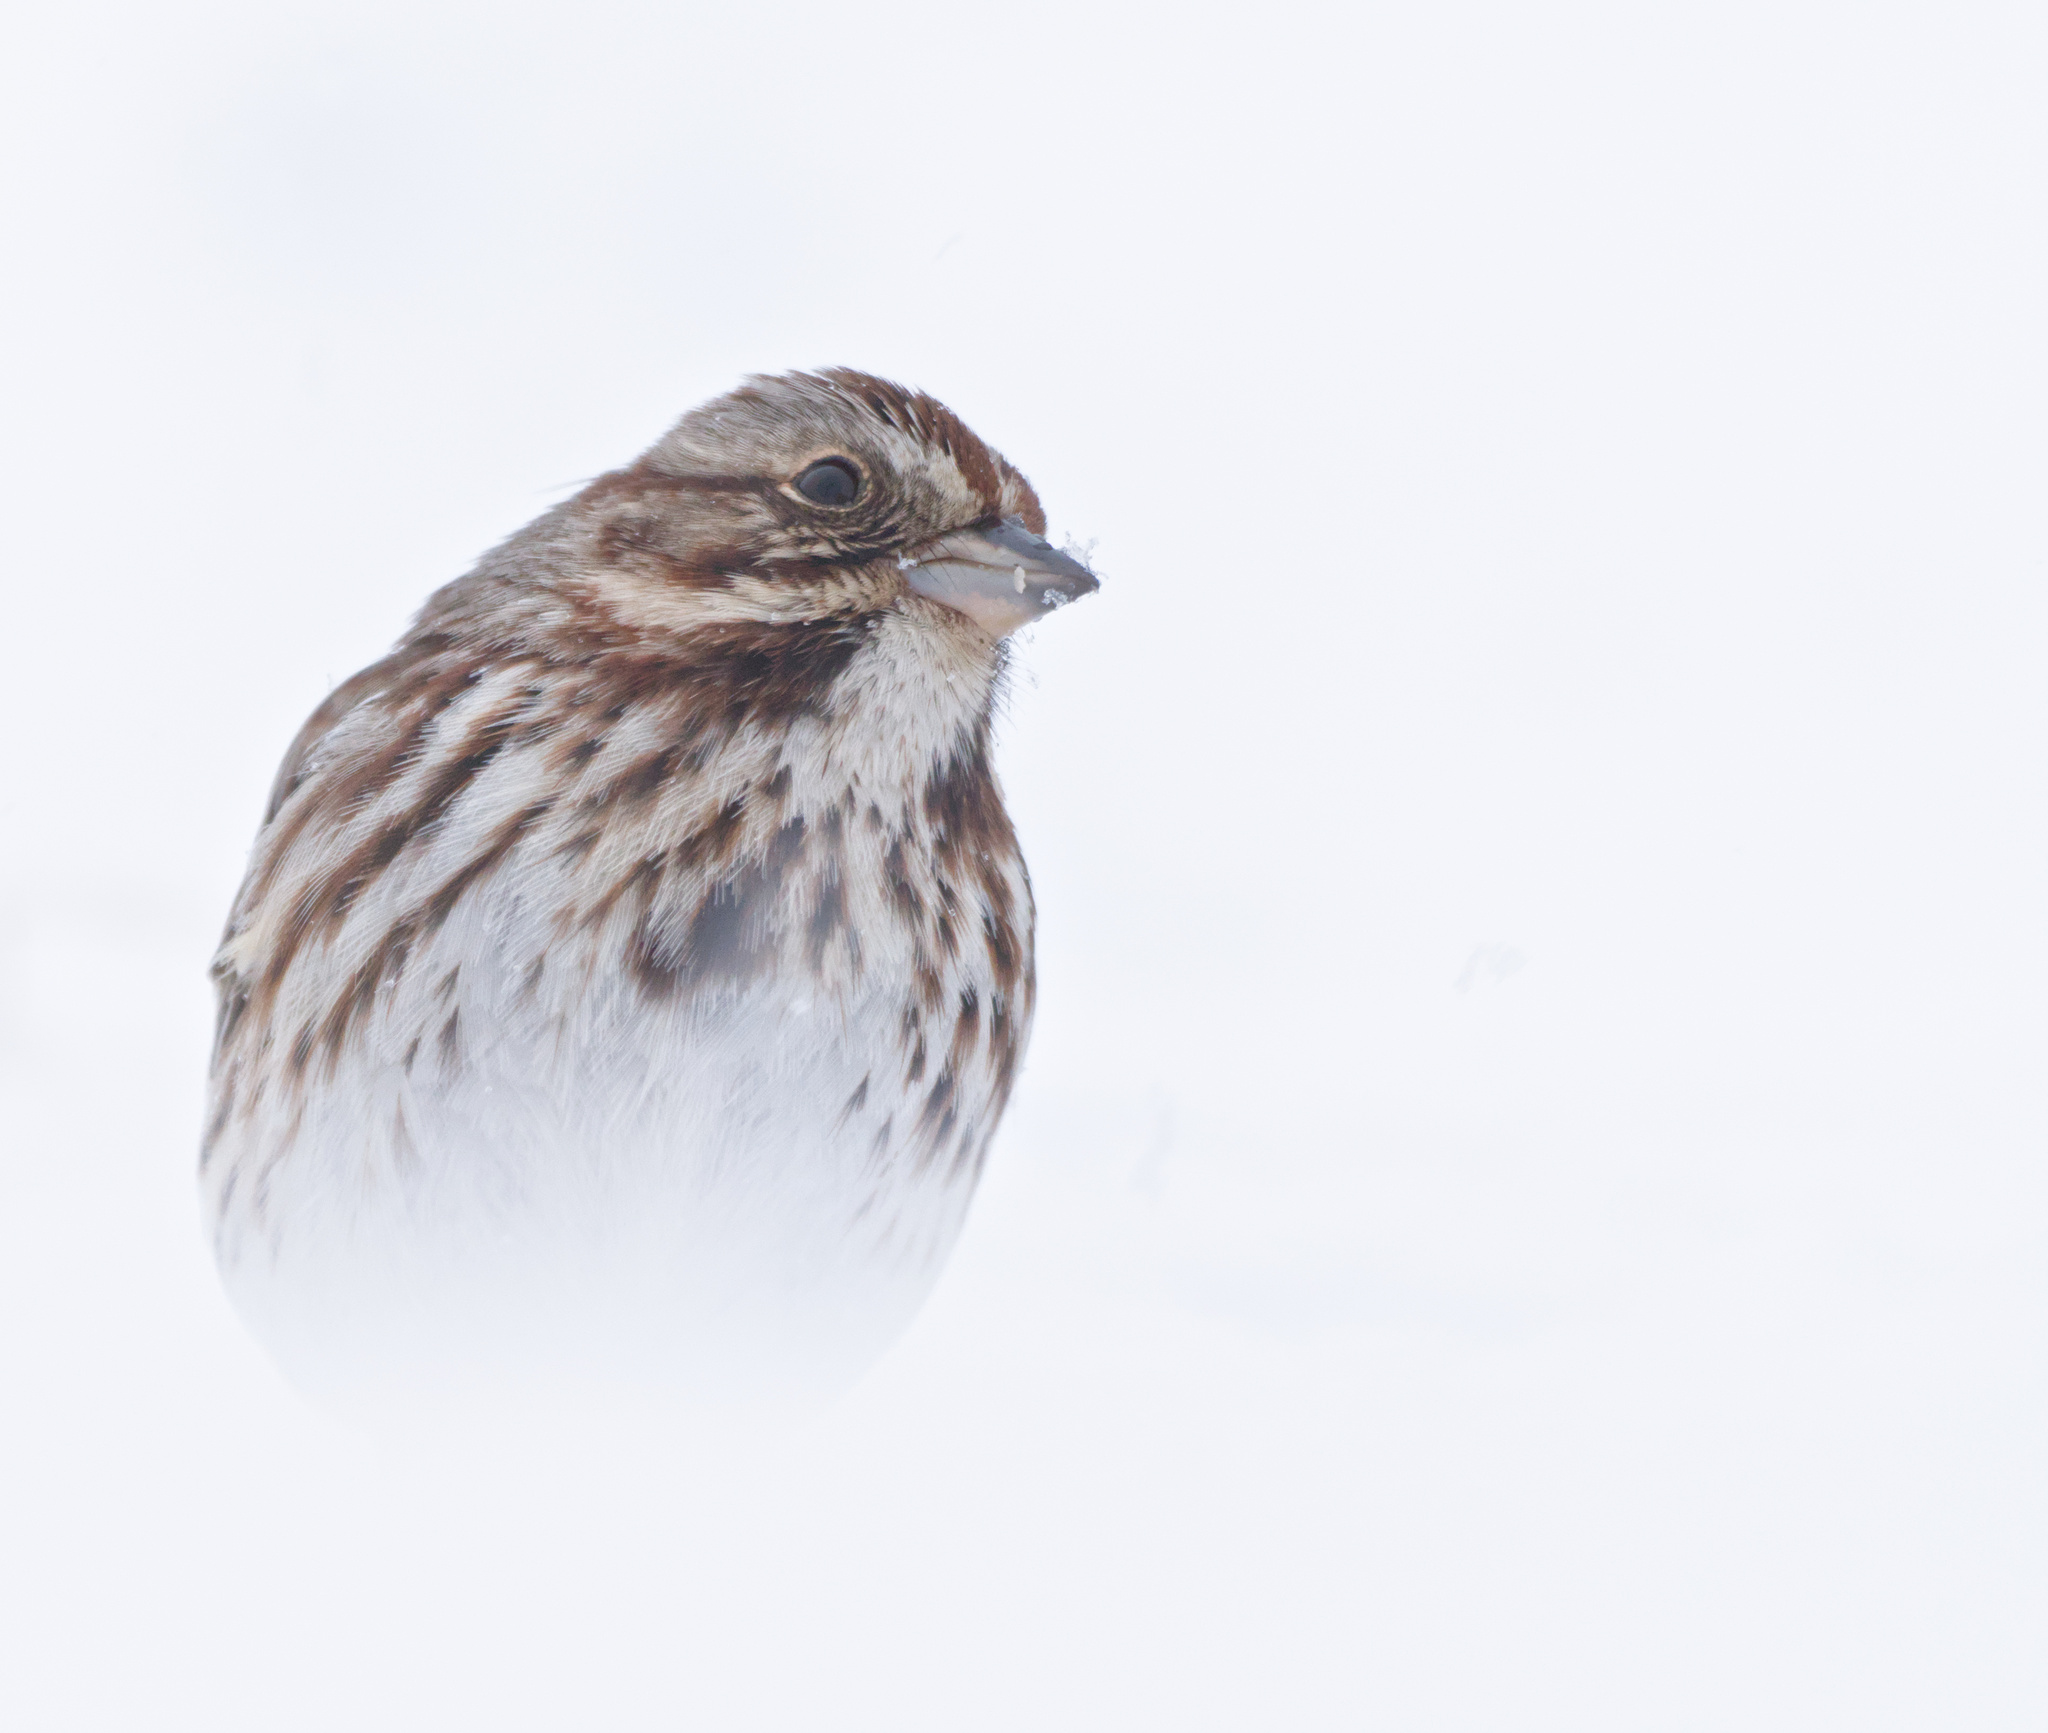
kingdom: Animalia
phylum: Chordata
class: Aves
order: Passeriformes
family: Passerellidae
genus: Melospiza
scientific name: Melospiza melodia
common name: Song sparrow
